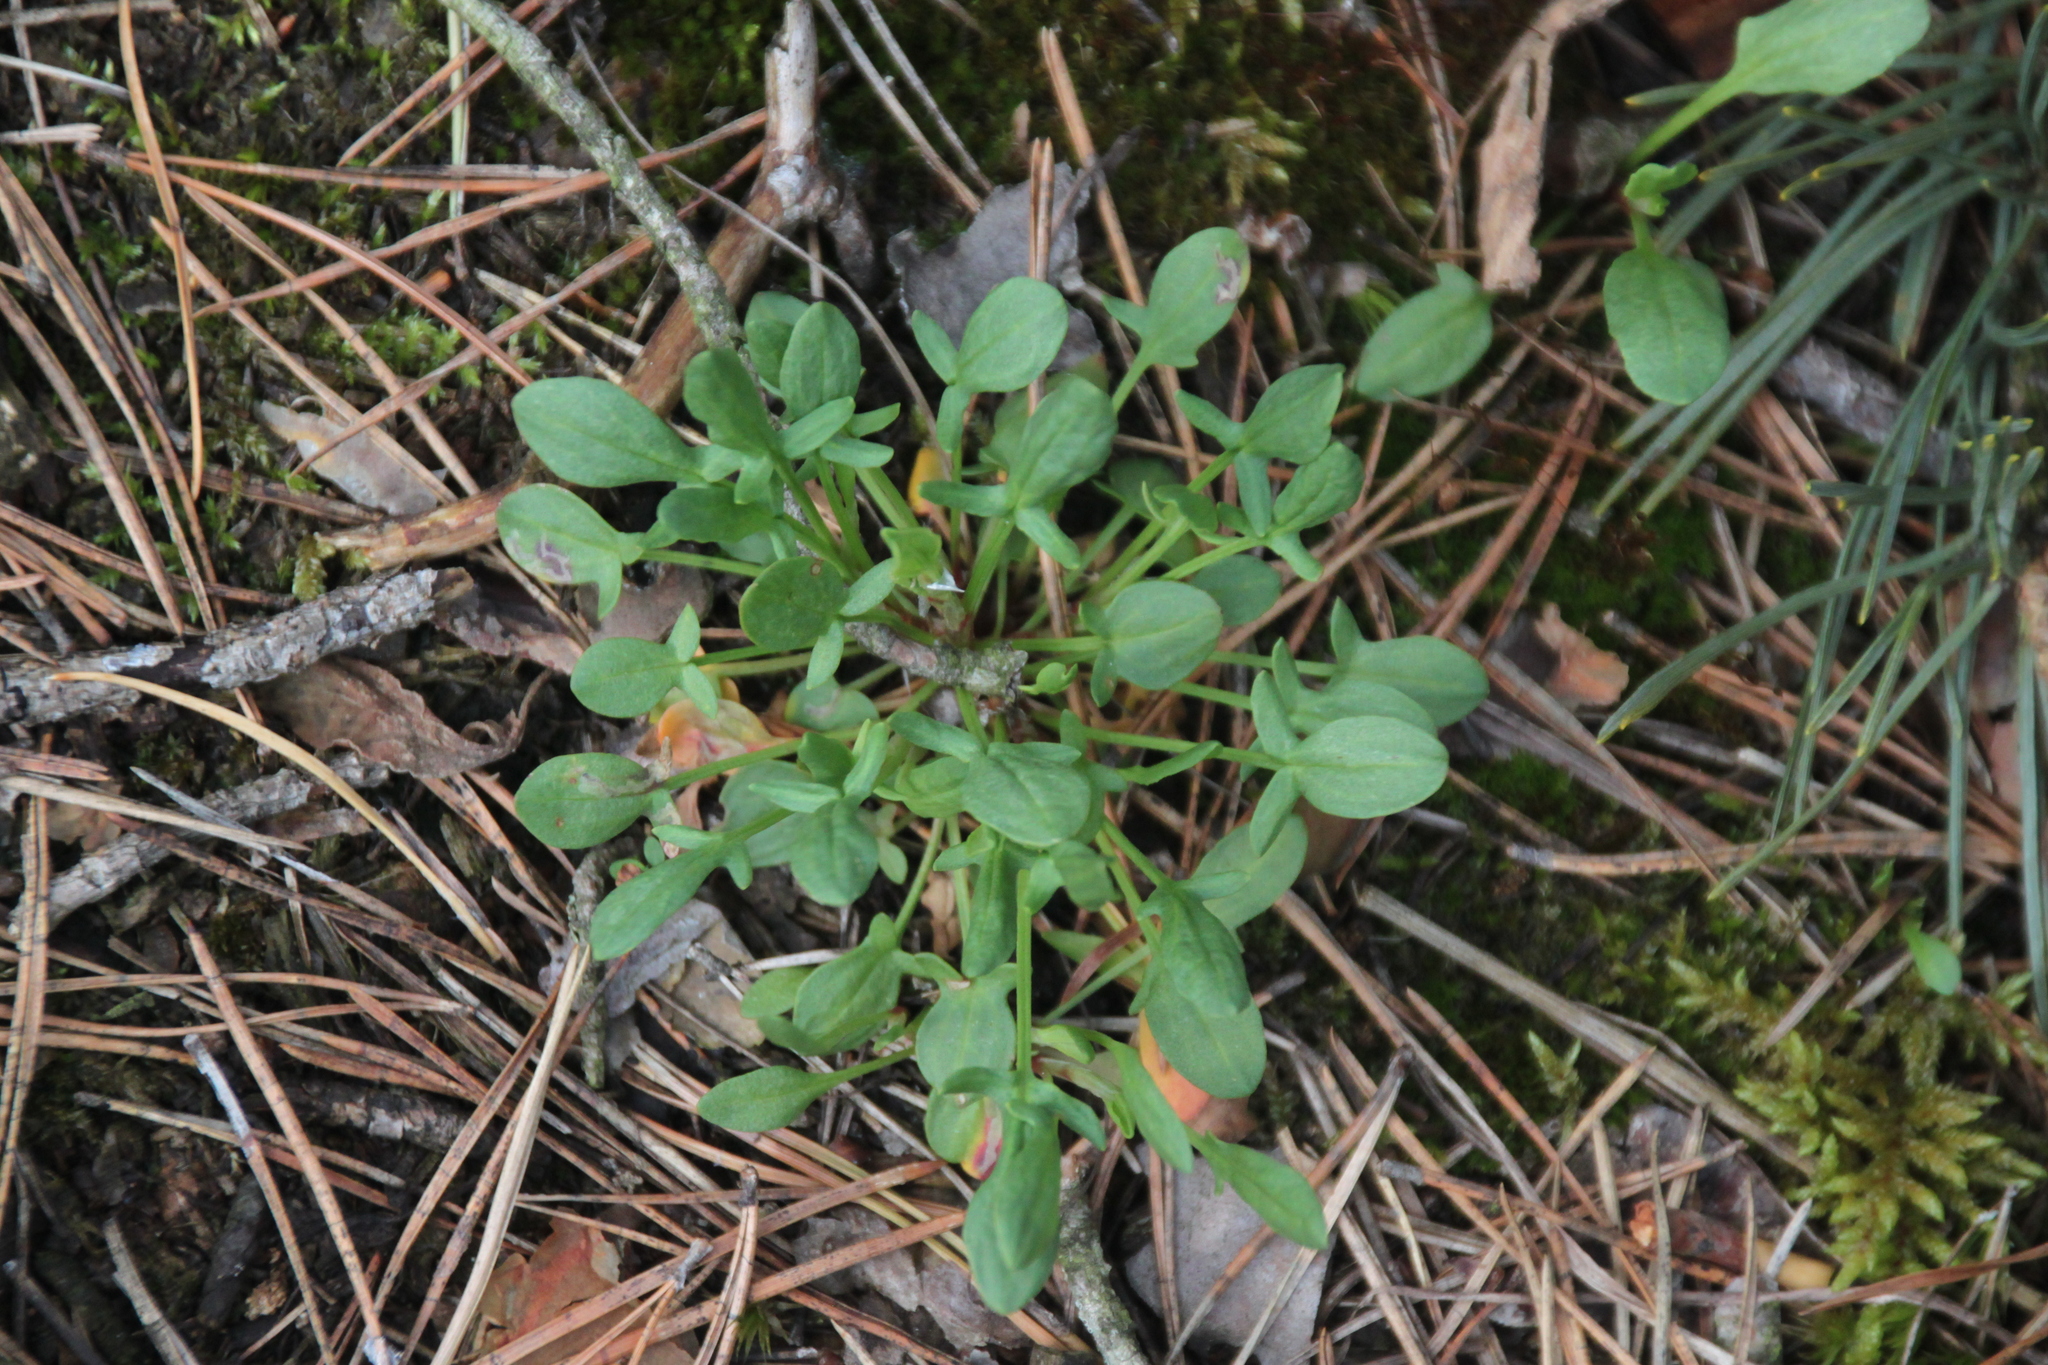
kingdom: Plantae
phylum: Tracheophyta
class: Magnoliopsida
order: Caryophyllales
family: Polygonaceae
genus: Rumex
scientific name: Rumex acetosella
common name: Common sheep sorrel
